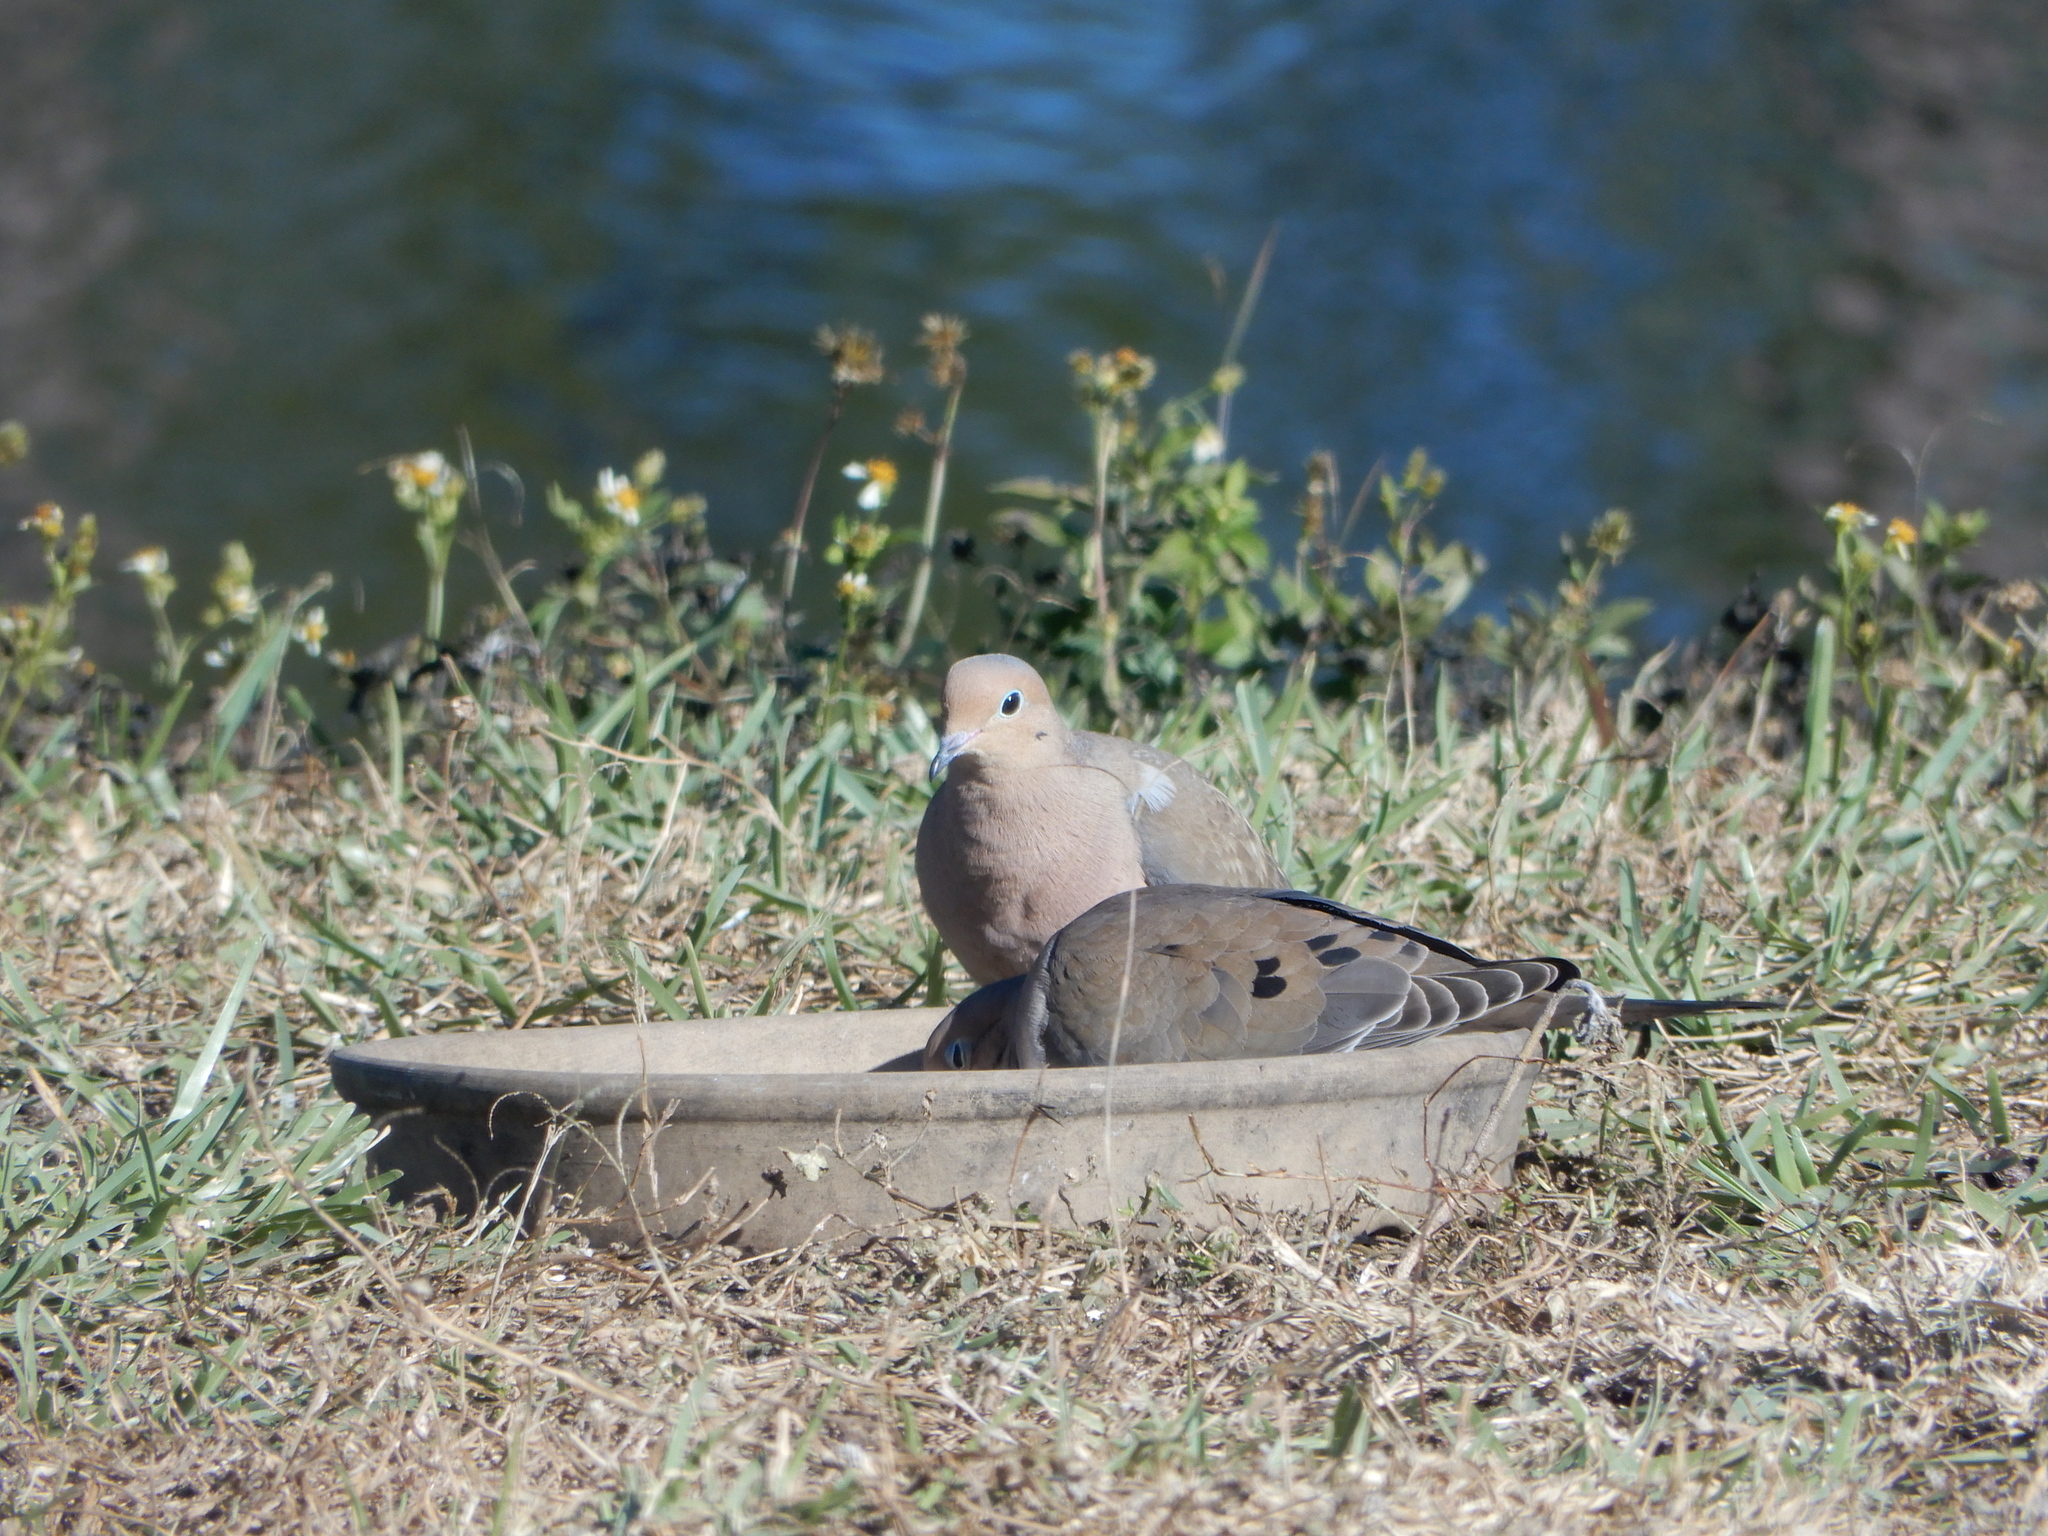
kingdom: Animalia
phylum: Chordata
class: Aves
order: Columbiformes
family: Columbidae
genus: Zenaida
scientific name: Zenaida macroura
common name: Mourning dove
